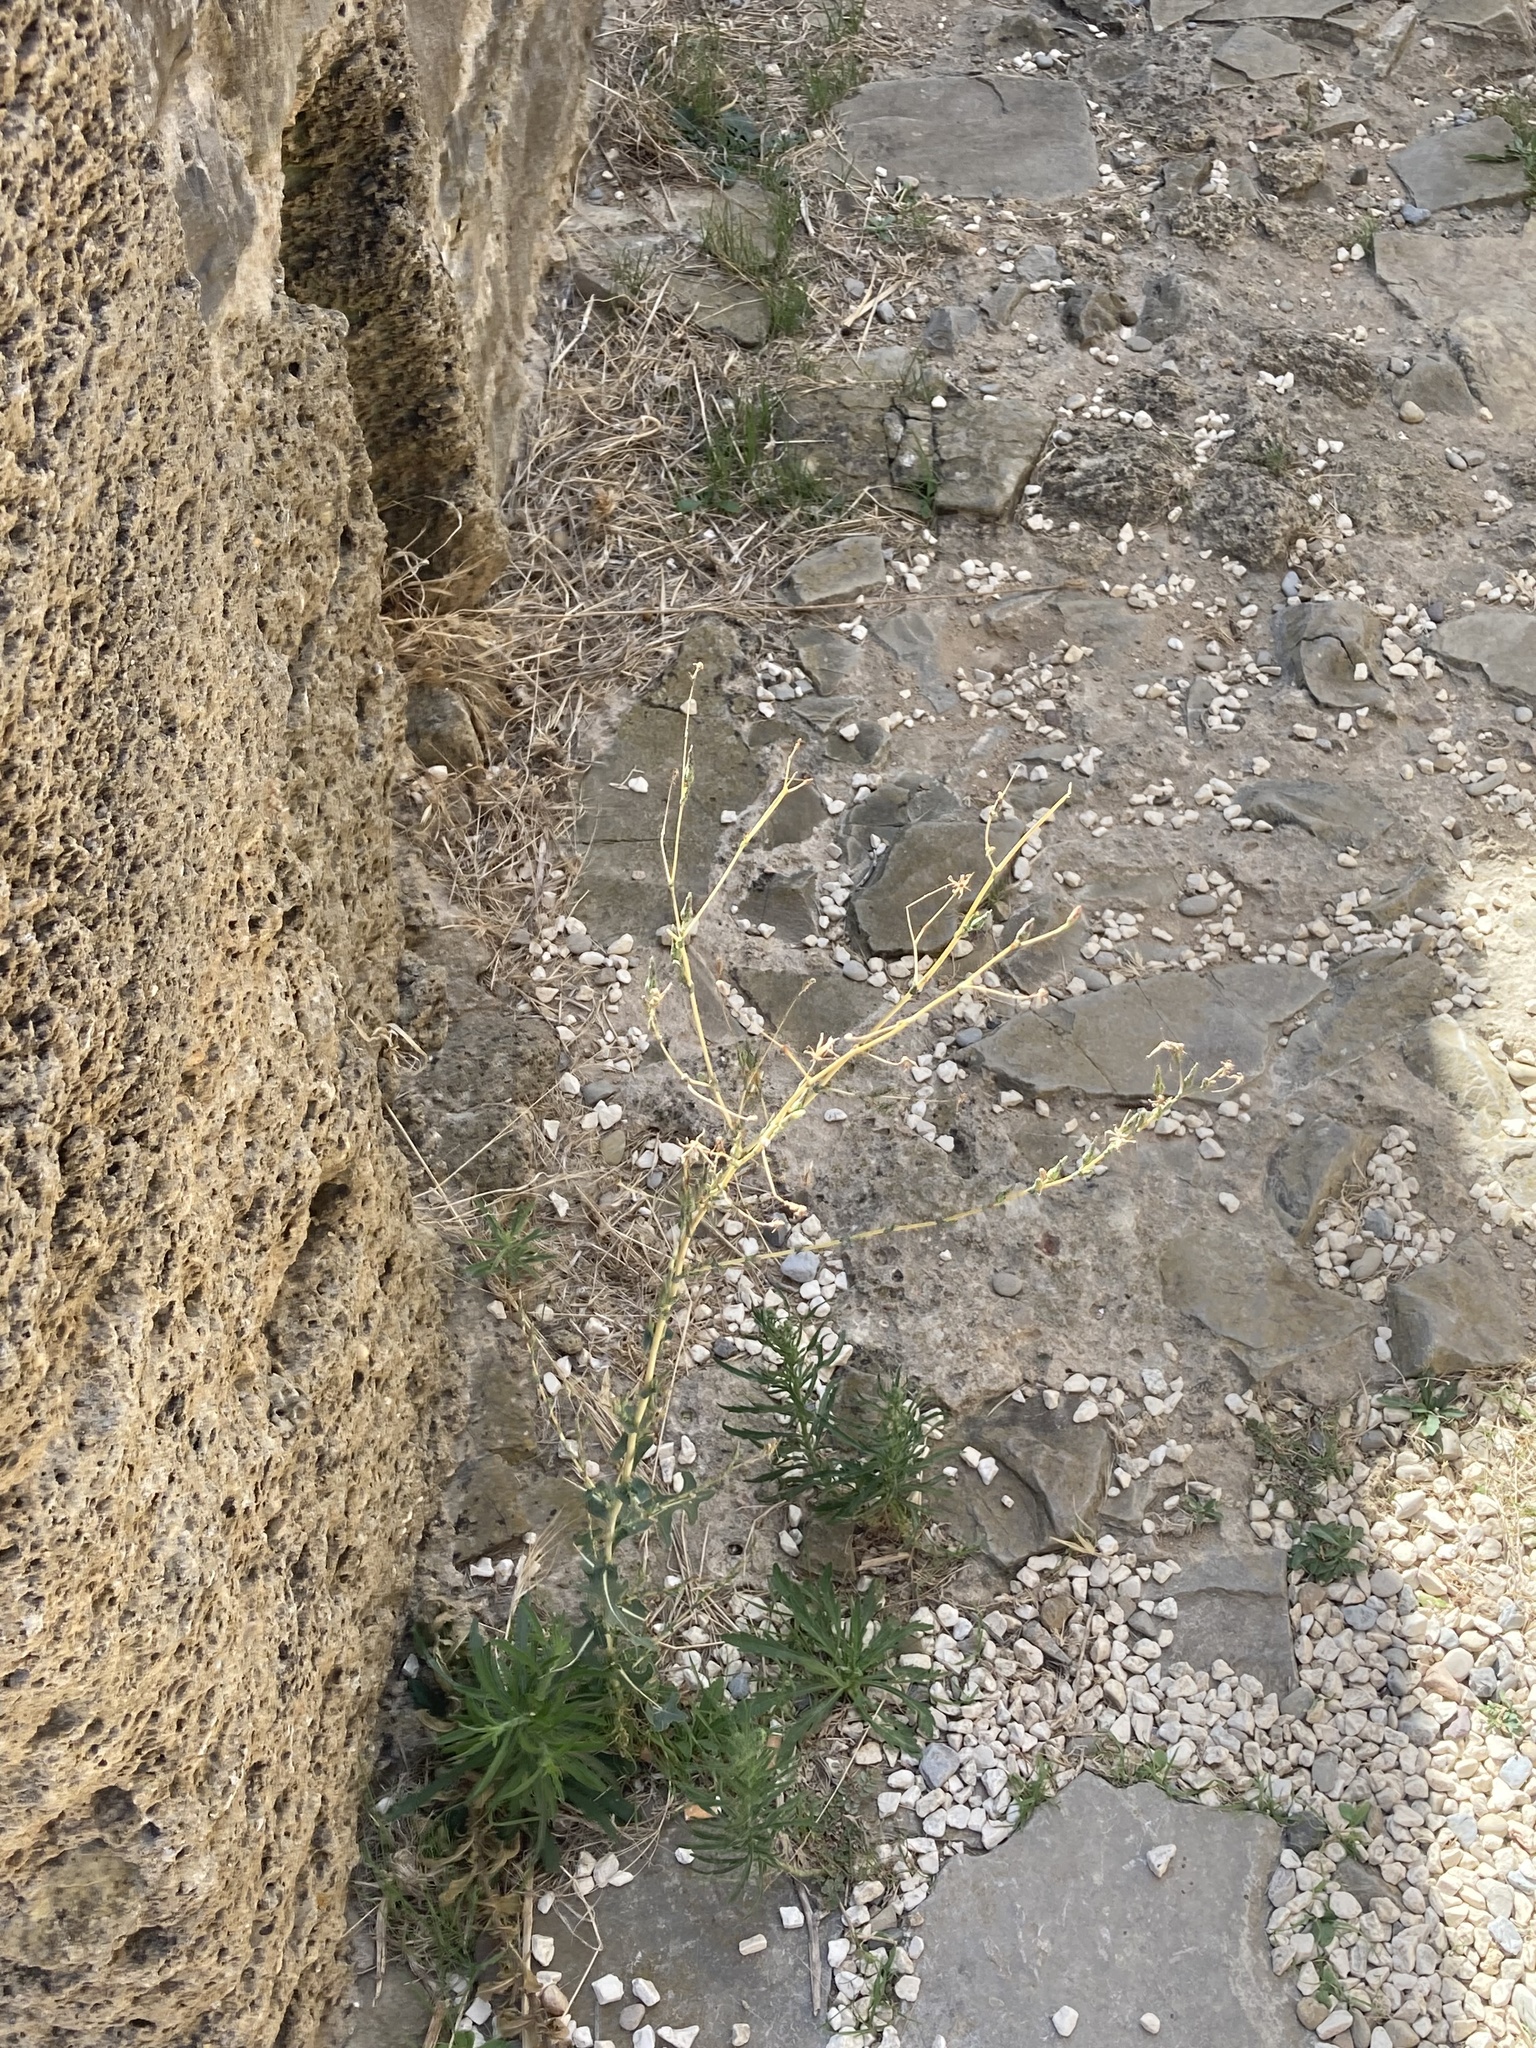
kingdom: Plantae
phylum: Tracheophyta
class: Magnoliopsida
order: Asterales
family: Asteraceae
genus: Lactuca
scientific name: Lactuca serriola
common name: Prickly lettuce
